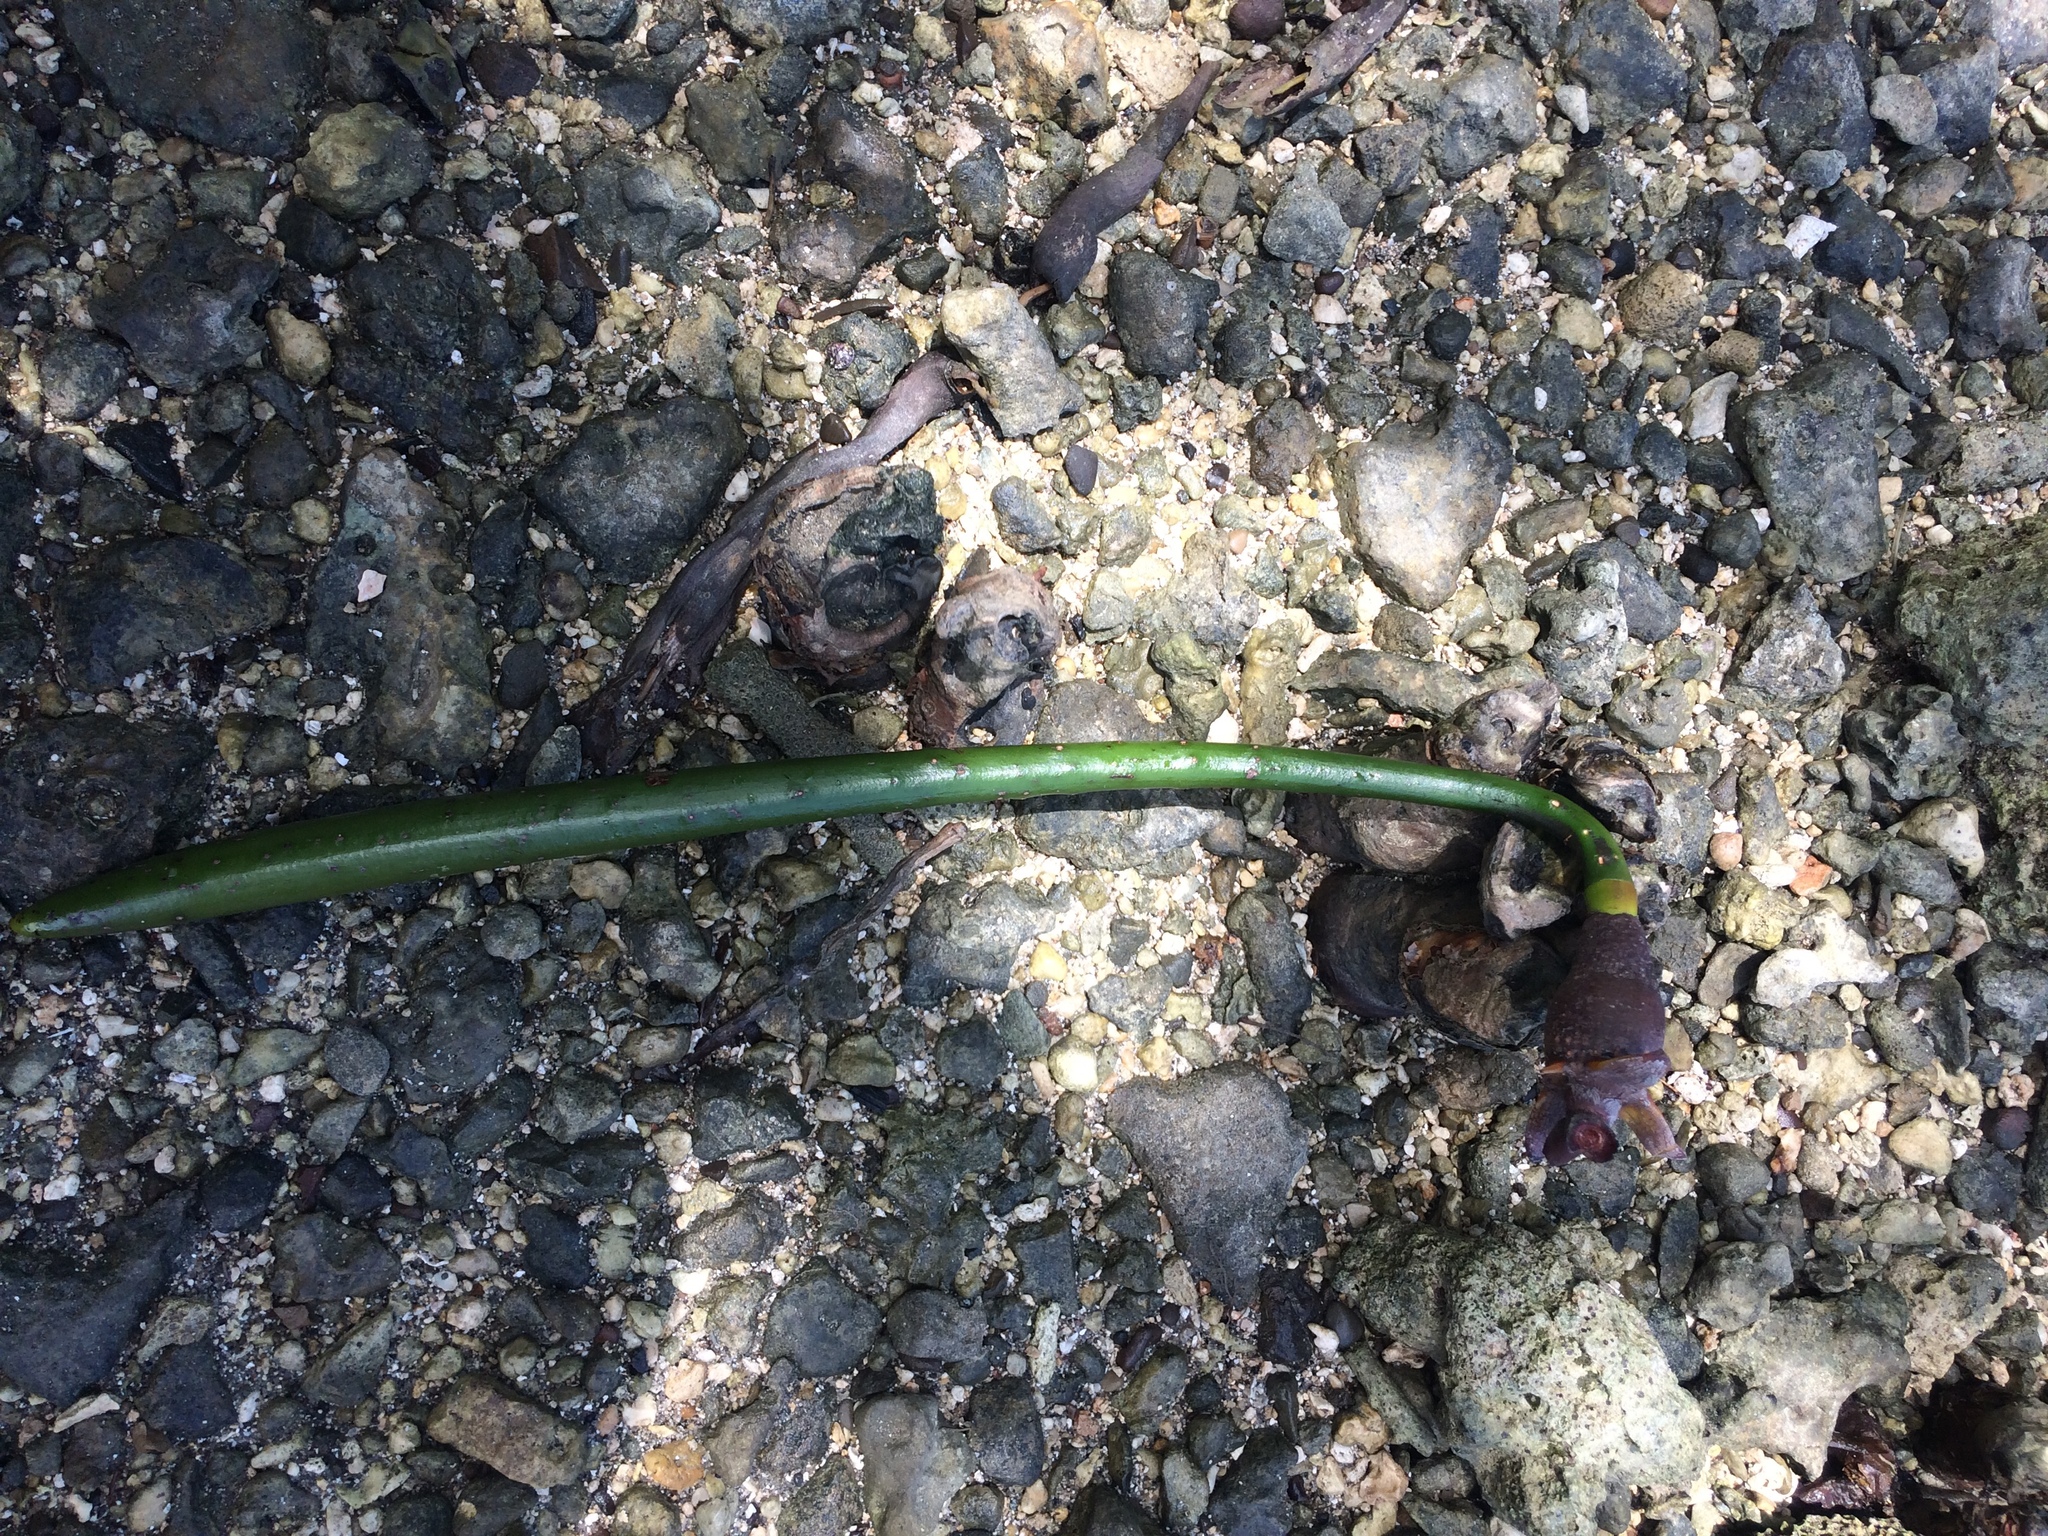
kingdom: Plantae
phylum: Tracheophyta
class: Magnoliopsida
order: Malpighiales
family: Rhizophoraceae
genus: Rhizophora
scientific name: Rhizophora stylosa
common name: Red mangrove
